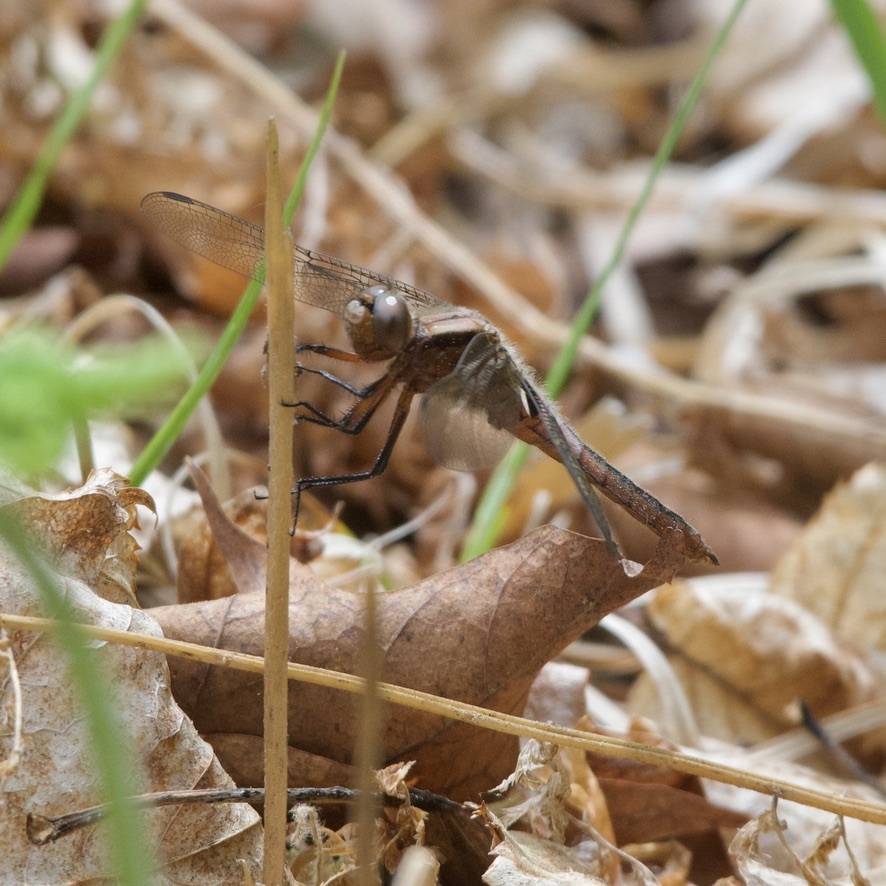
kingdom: Animalia
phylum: Arthropoda
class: Insecta
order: Odonata
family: Libellulidae
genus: Ladona
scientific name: Ladona julia
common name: Chalk-fronted corporal
